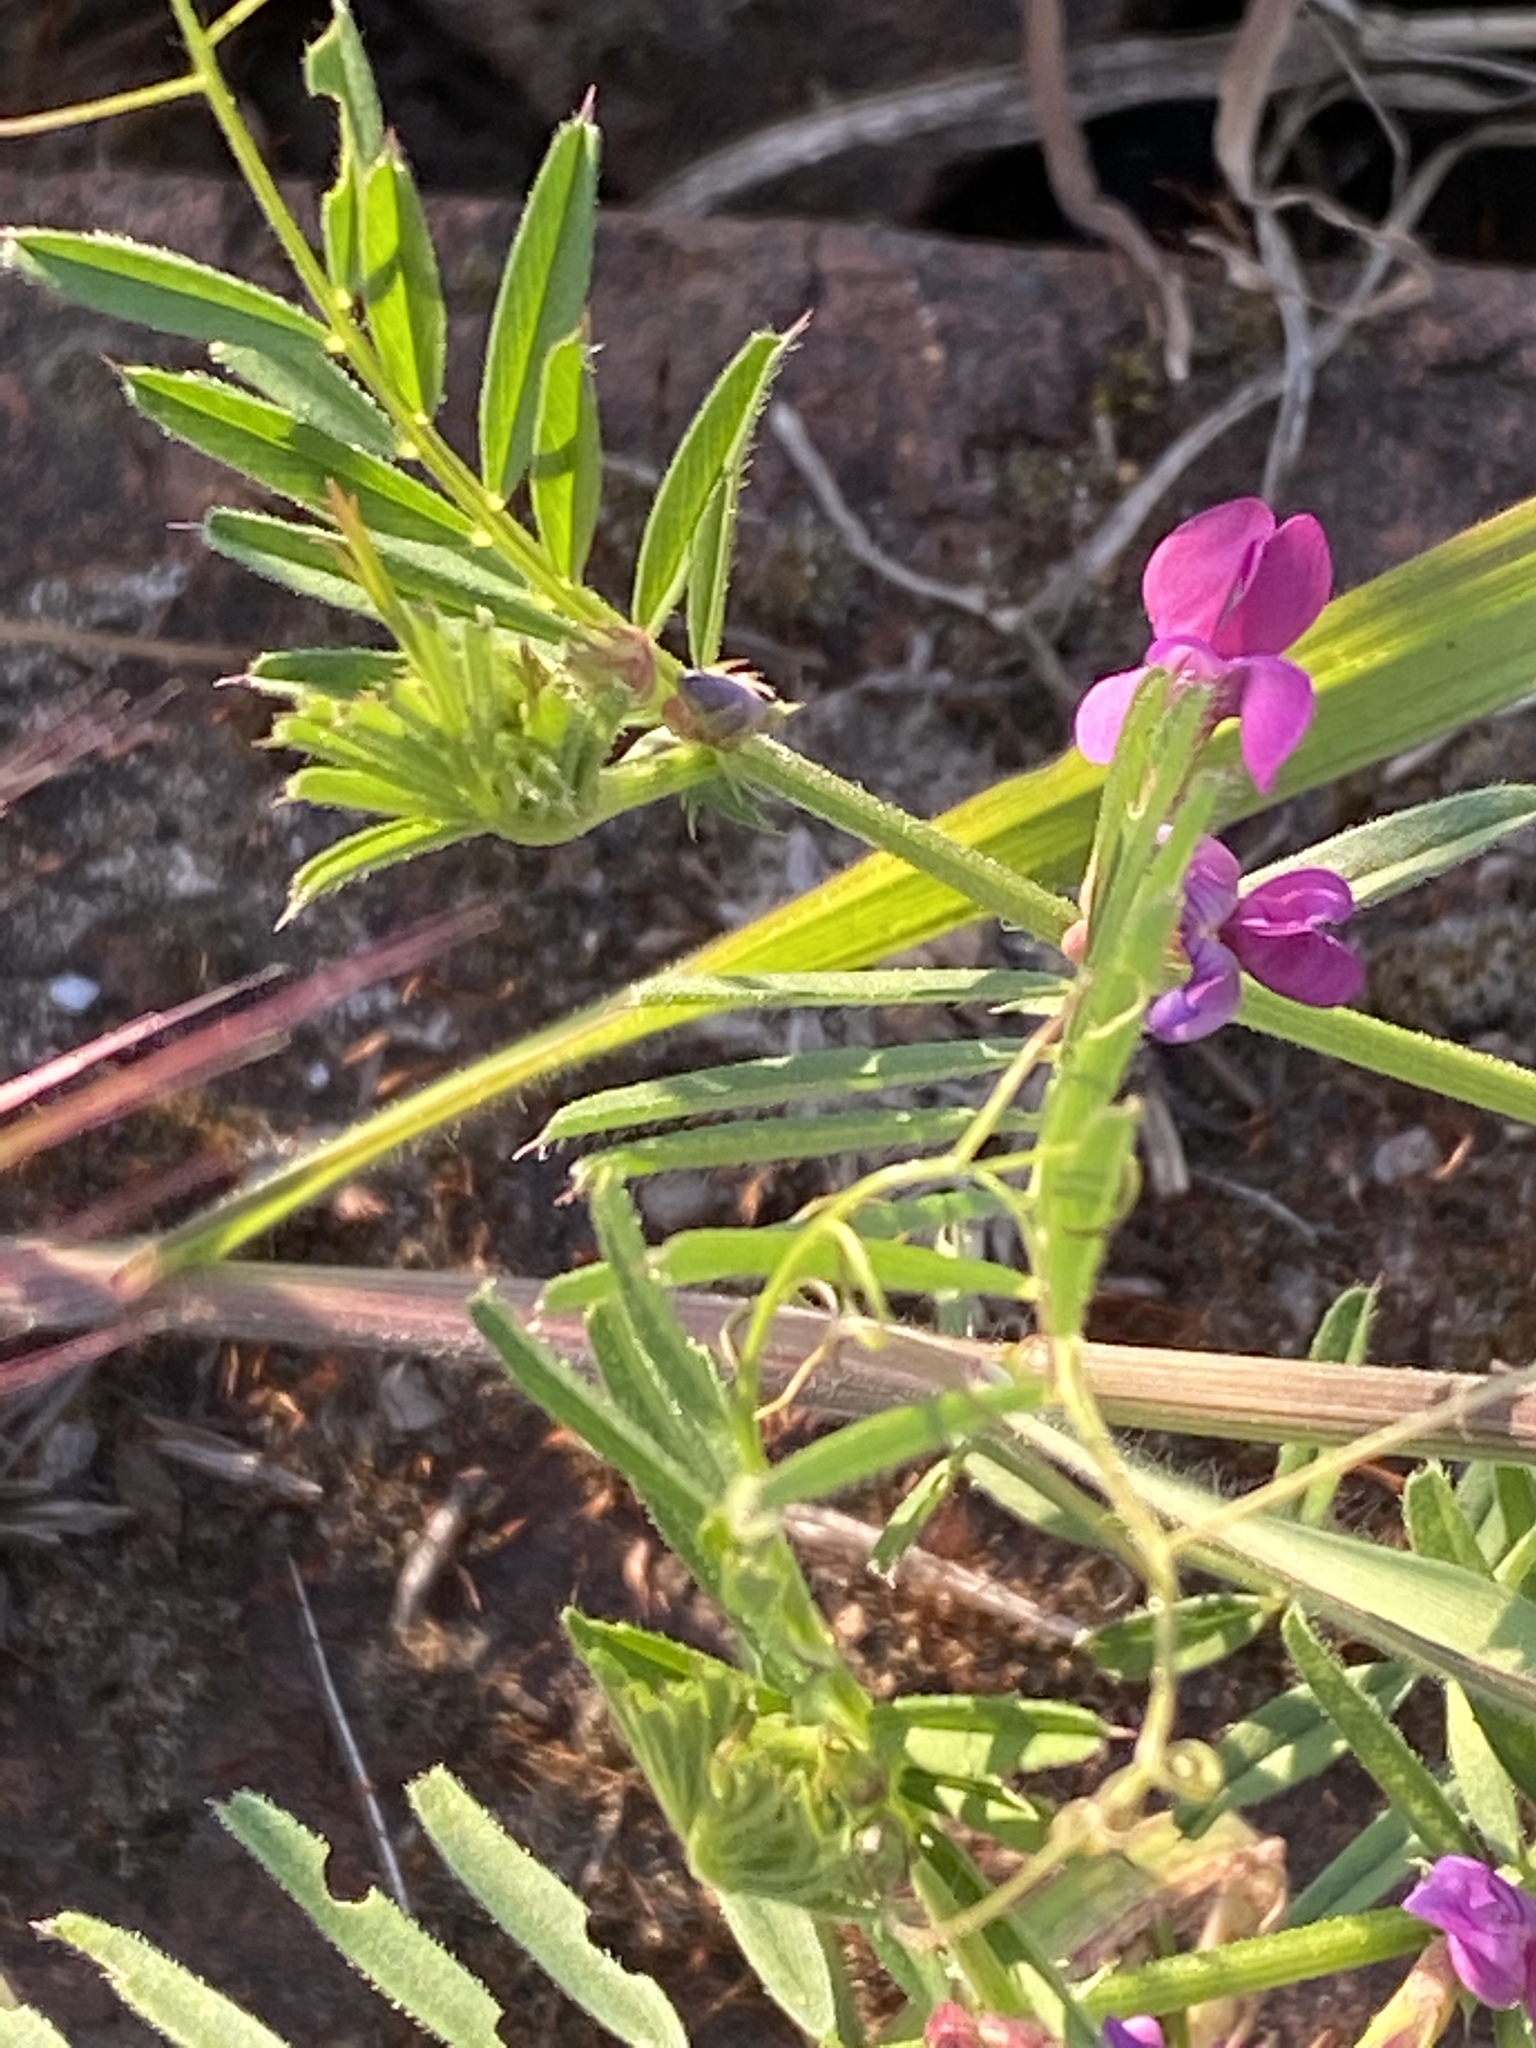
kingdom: Plantae
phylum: Tracheophyta
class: Magnoliopsida
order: Fabales
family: Fabaceae
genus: Vicia
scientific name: Vicia sativa
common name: Garden vetch
